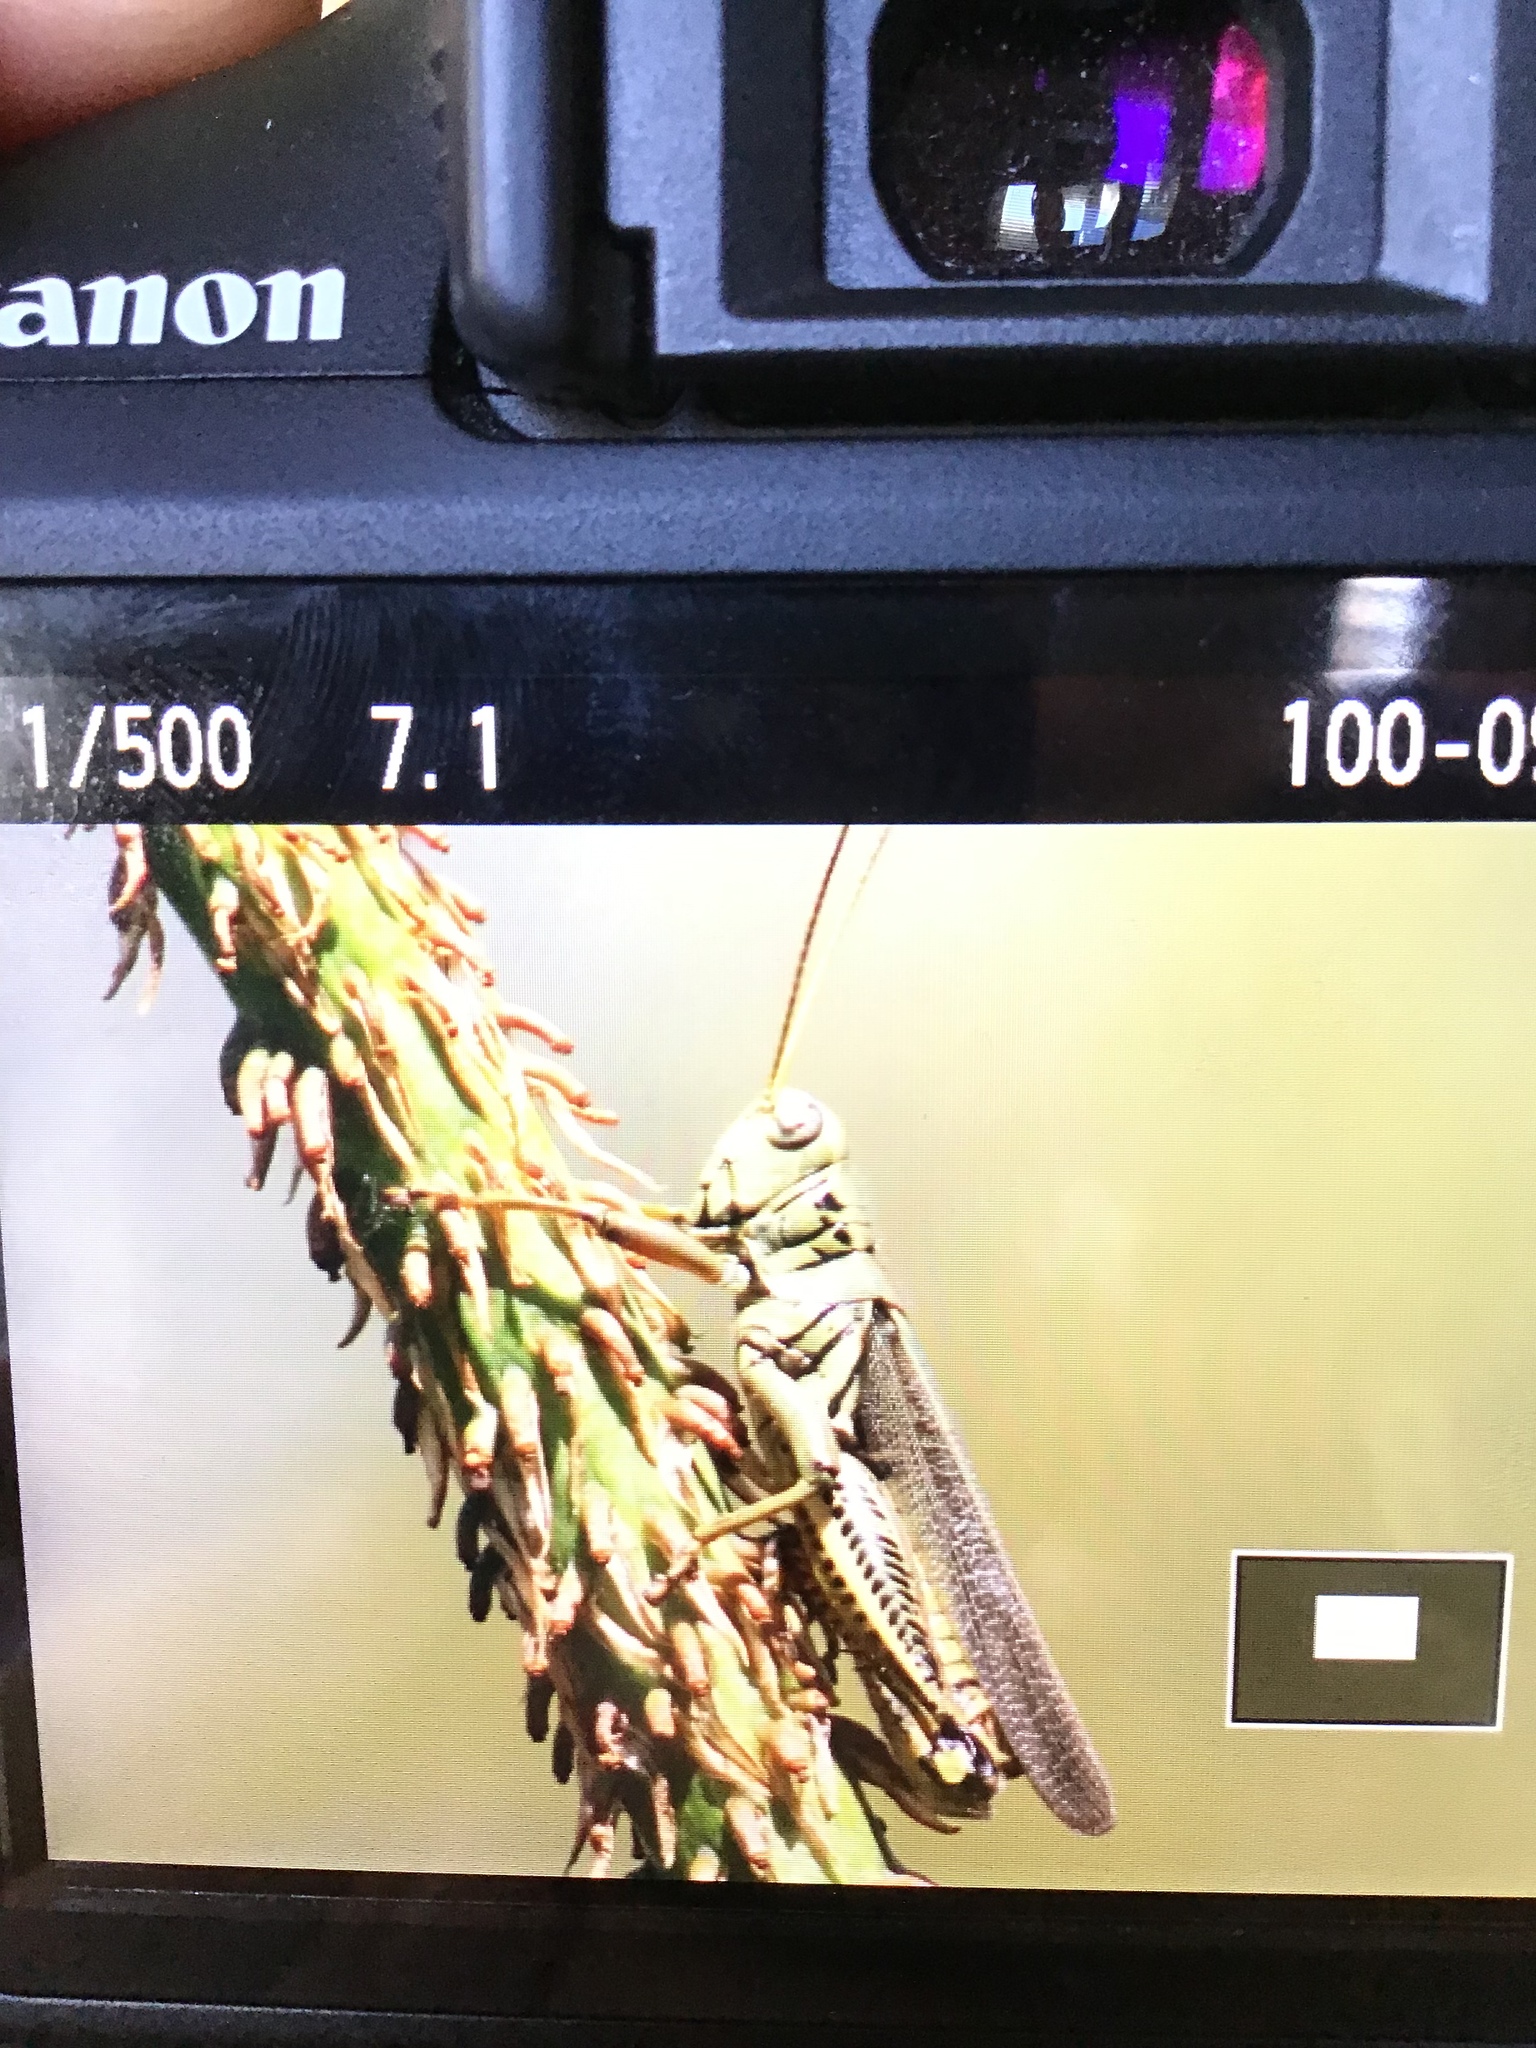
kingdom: Animalia
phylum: Arthropoda
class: Insecta
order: Orthoptera
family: Acrididae
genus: Melanoplus
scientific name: Melanoplus differentialis
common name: Differential grasshopper
